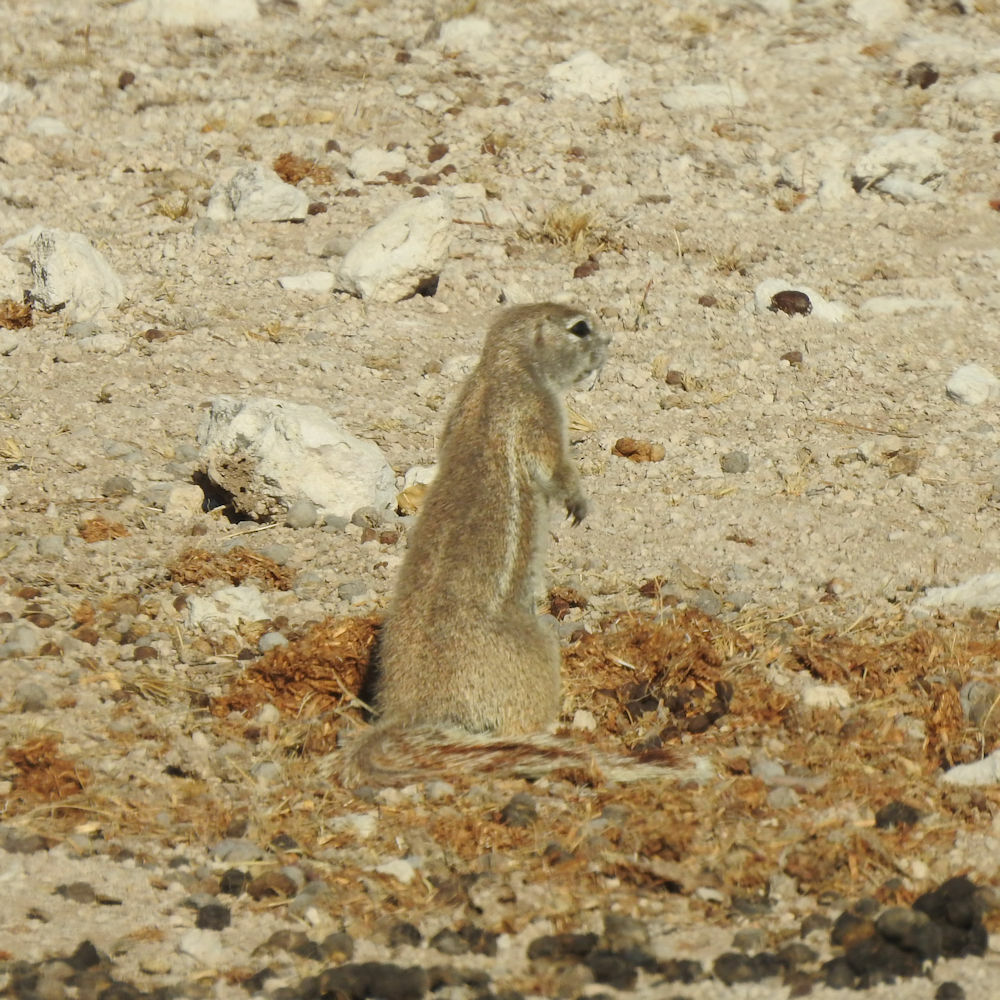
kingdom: Animalia
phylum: Chordata
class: Mammalia
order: Rodentia
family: Sciuridae
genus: Xerus
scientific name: Xerus inauris
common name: South african ground squirrel
